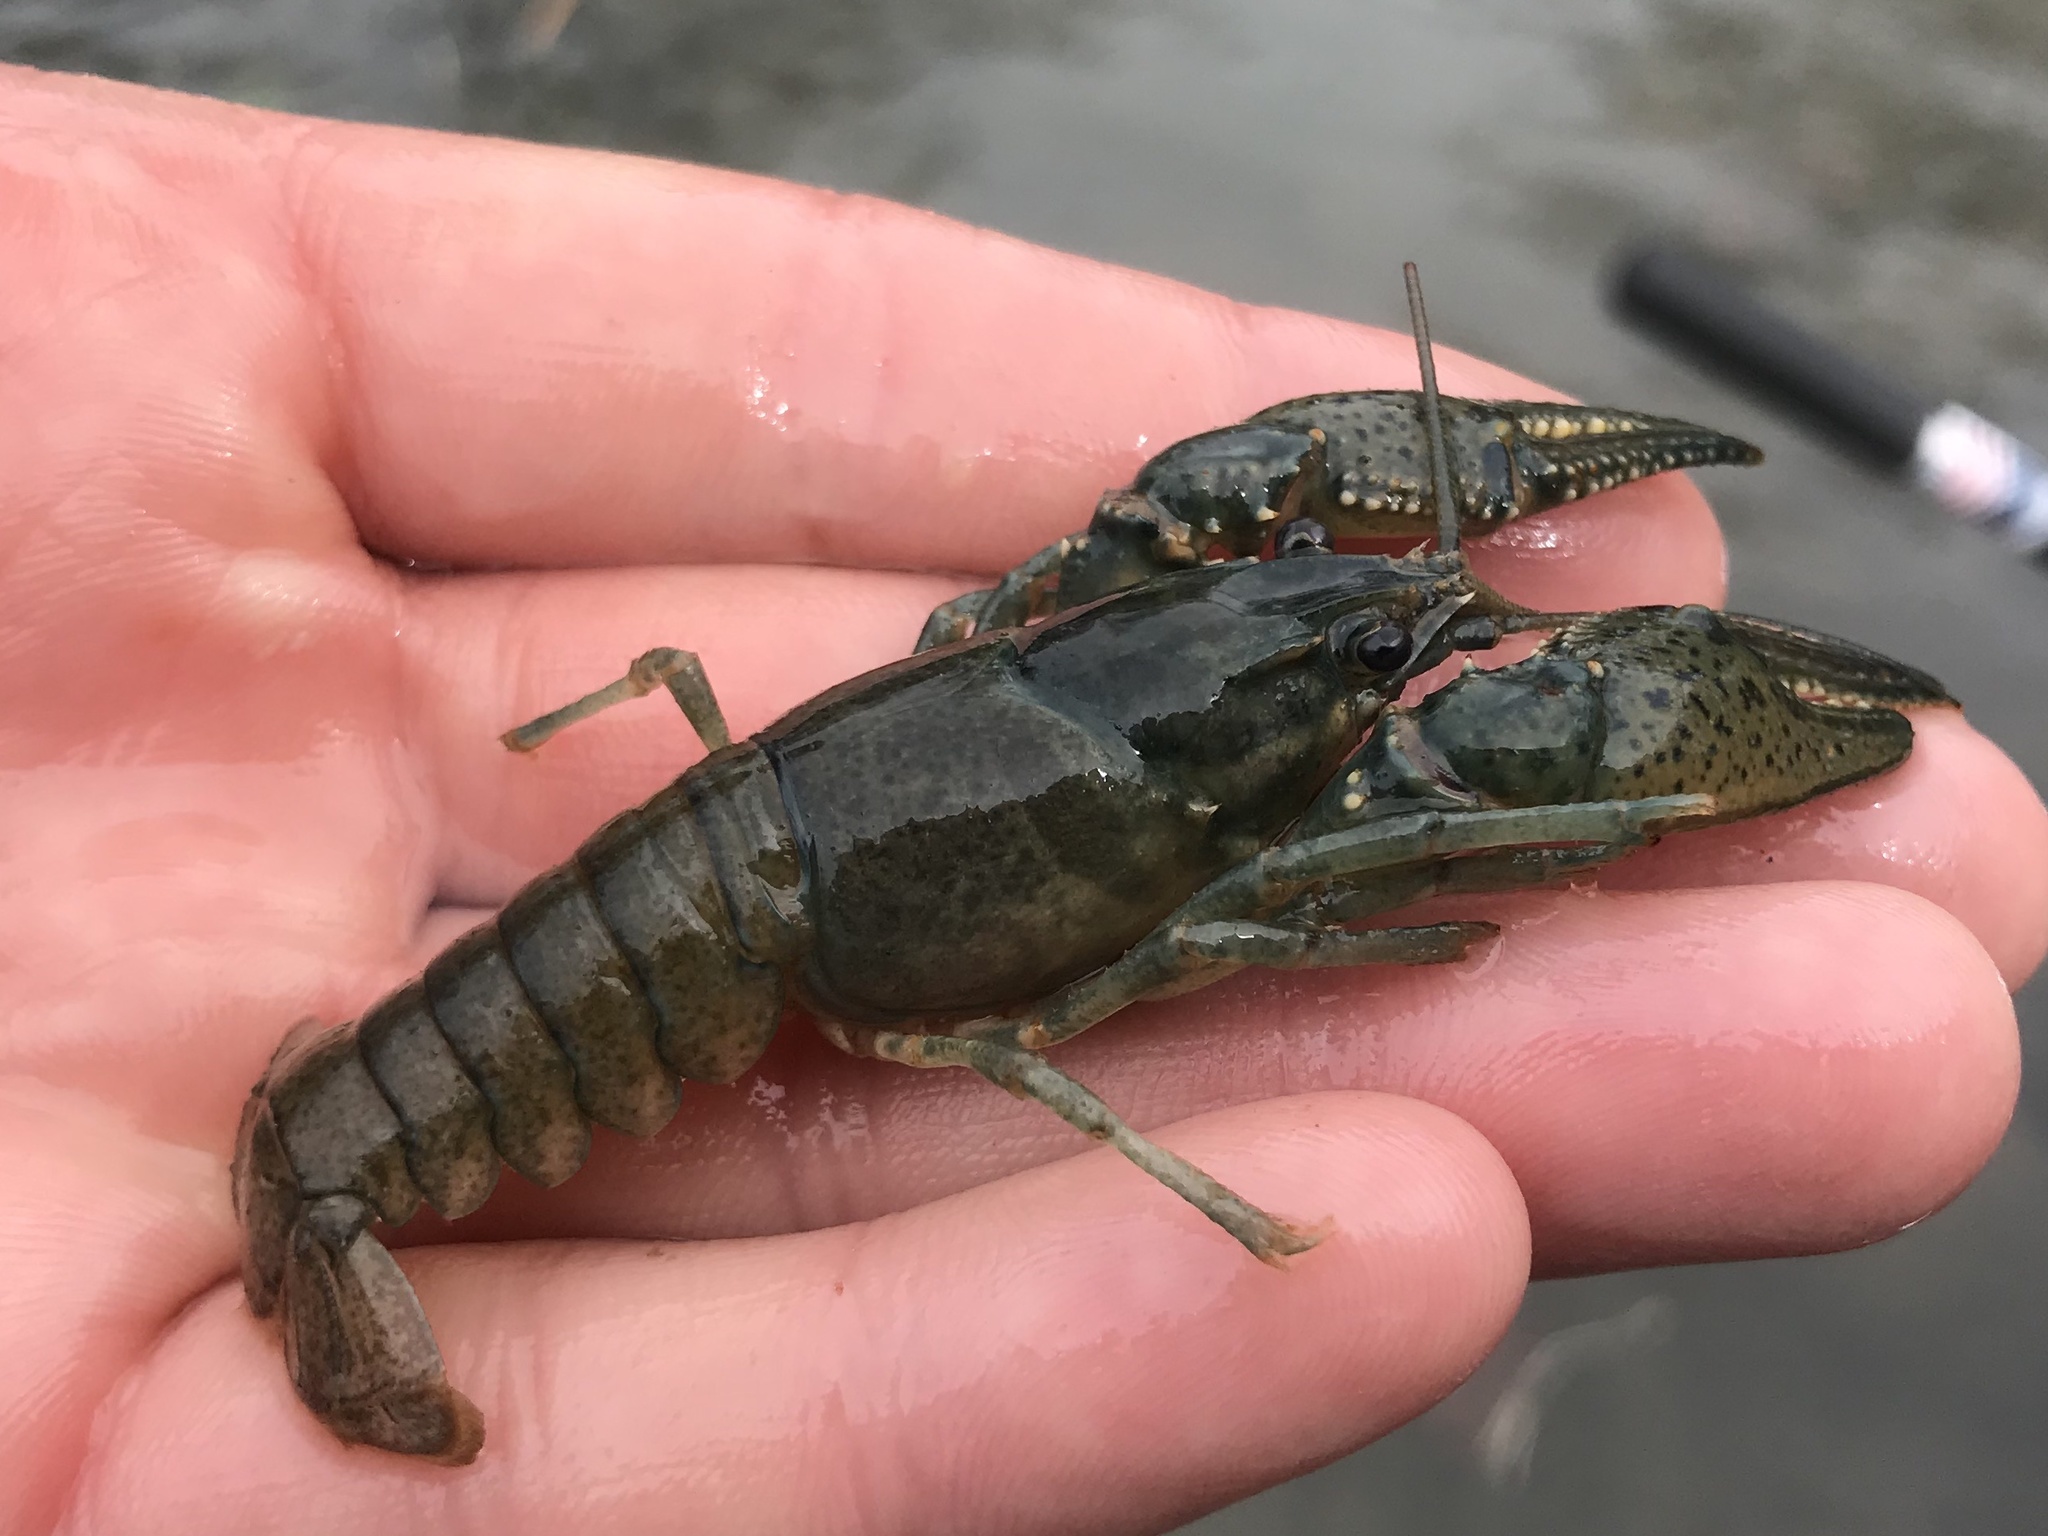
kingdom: Animalia
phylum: Arthropoda
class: Malacostraca
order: Decapoda
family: Cambaridae
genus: Faxonius
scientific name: Faxonius occidentalis
